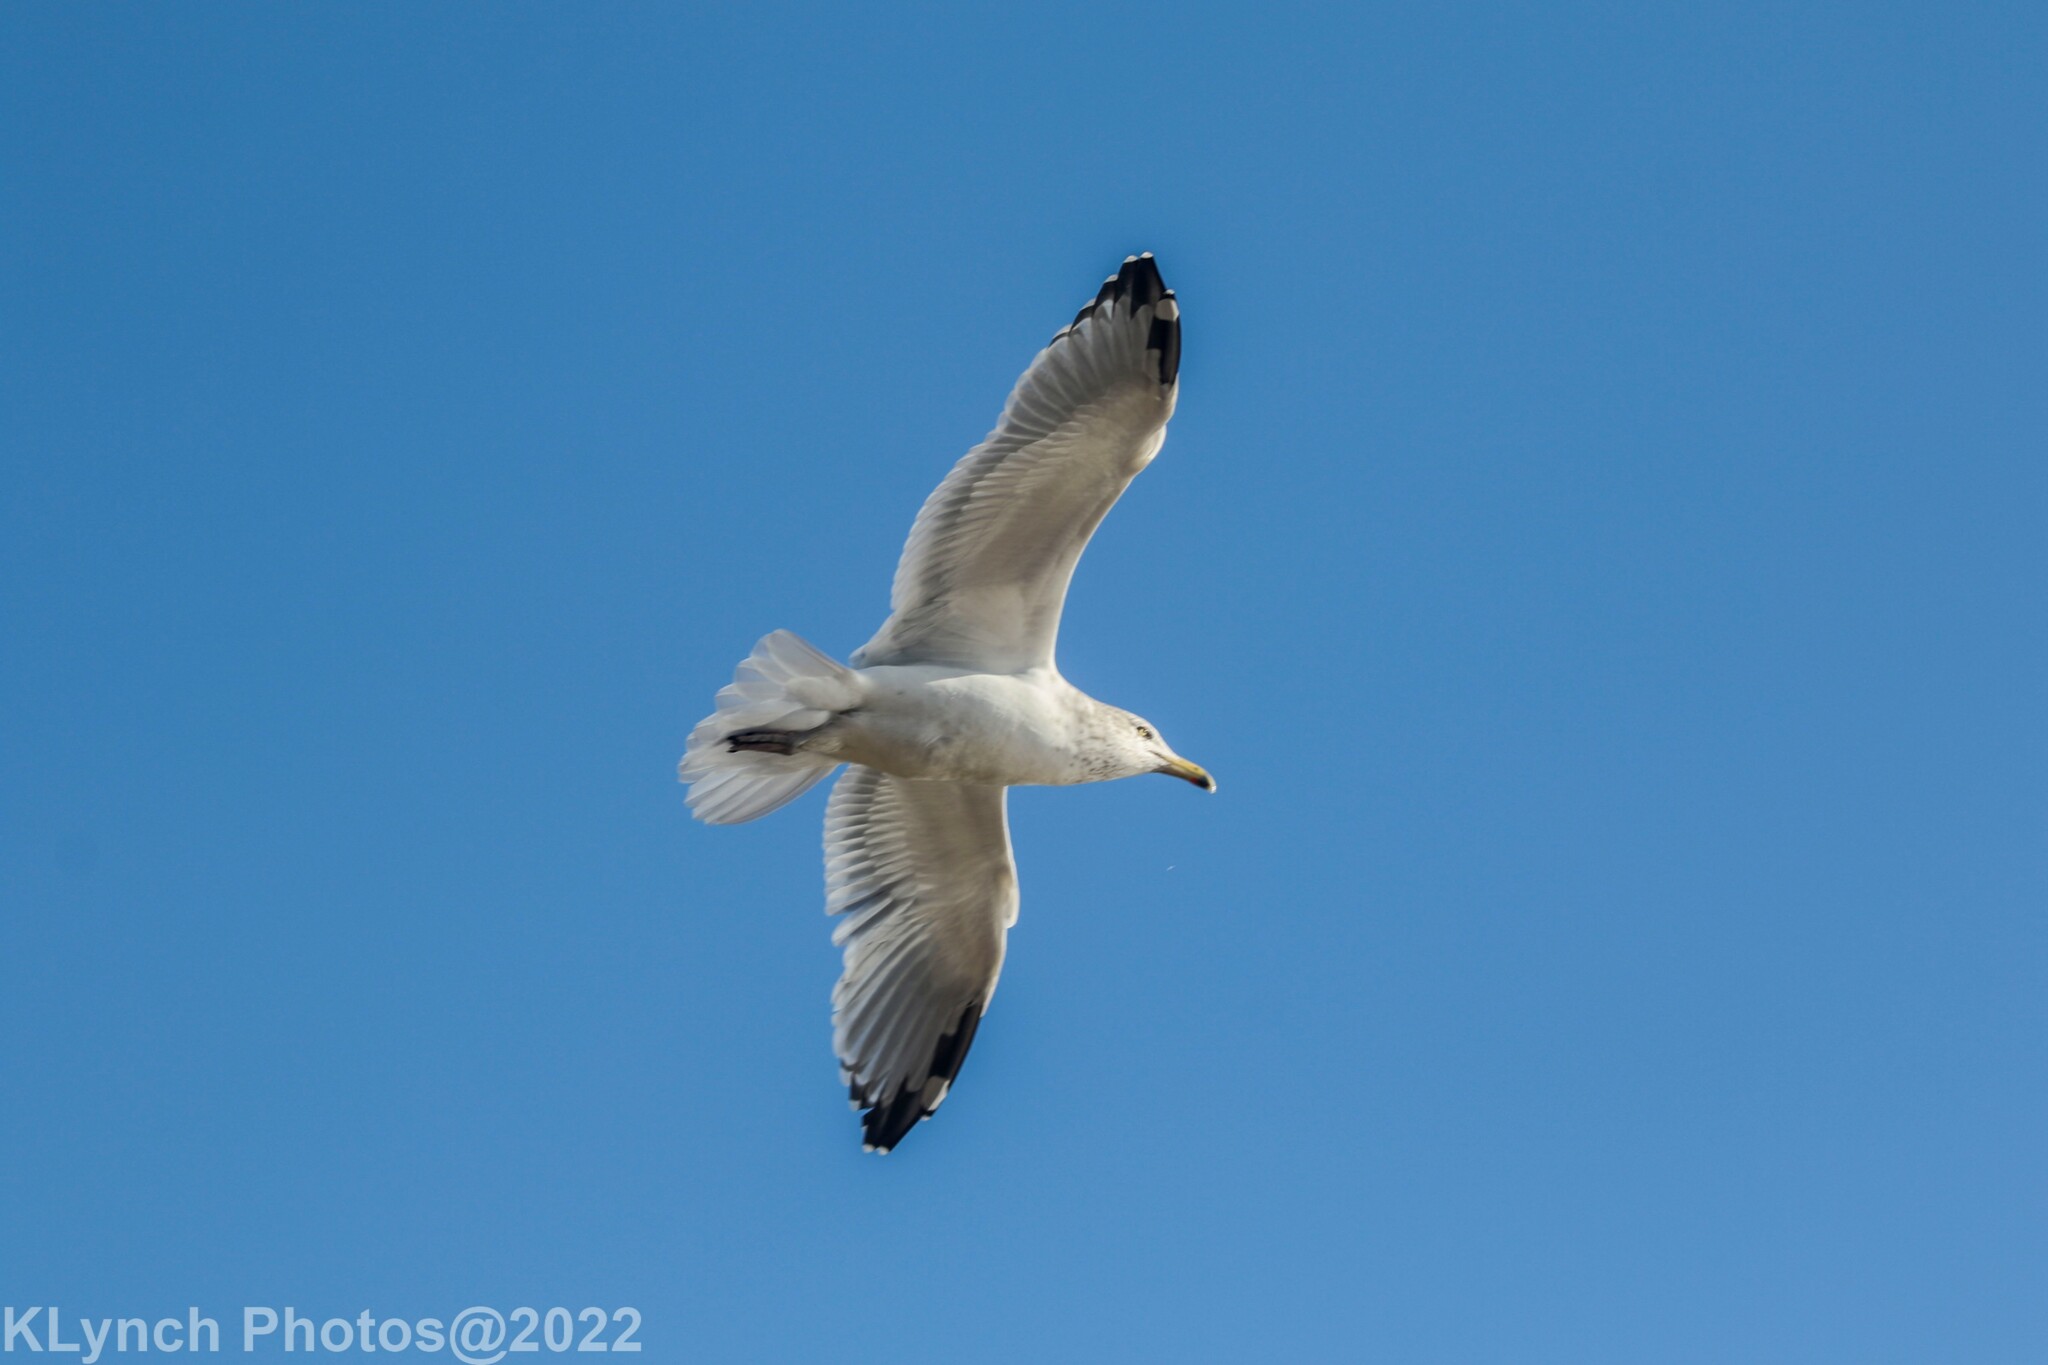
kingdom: Animalia
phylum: Chordata
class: Aves
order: Charadriiformes
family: Laridae
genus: Larus
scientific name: Larus argentatus
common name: Herring gull
